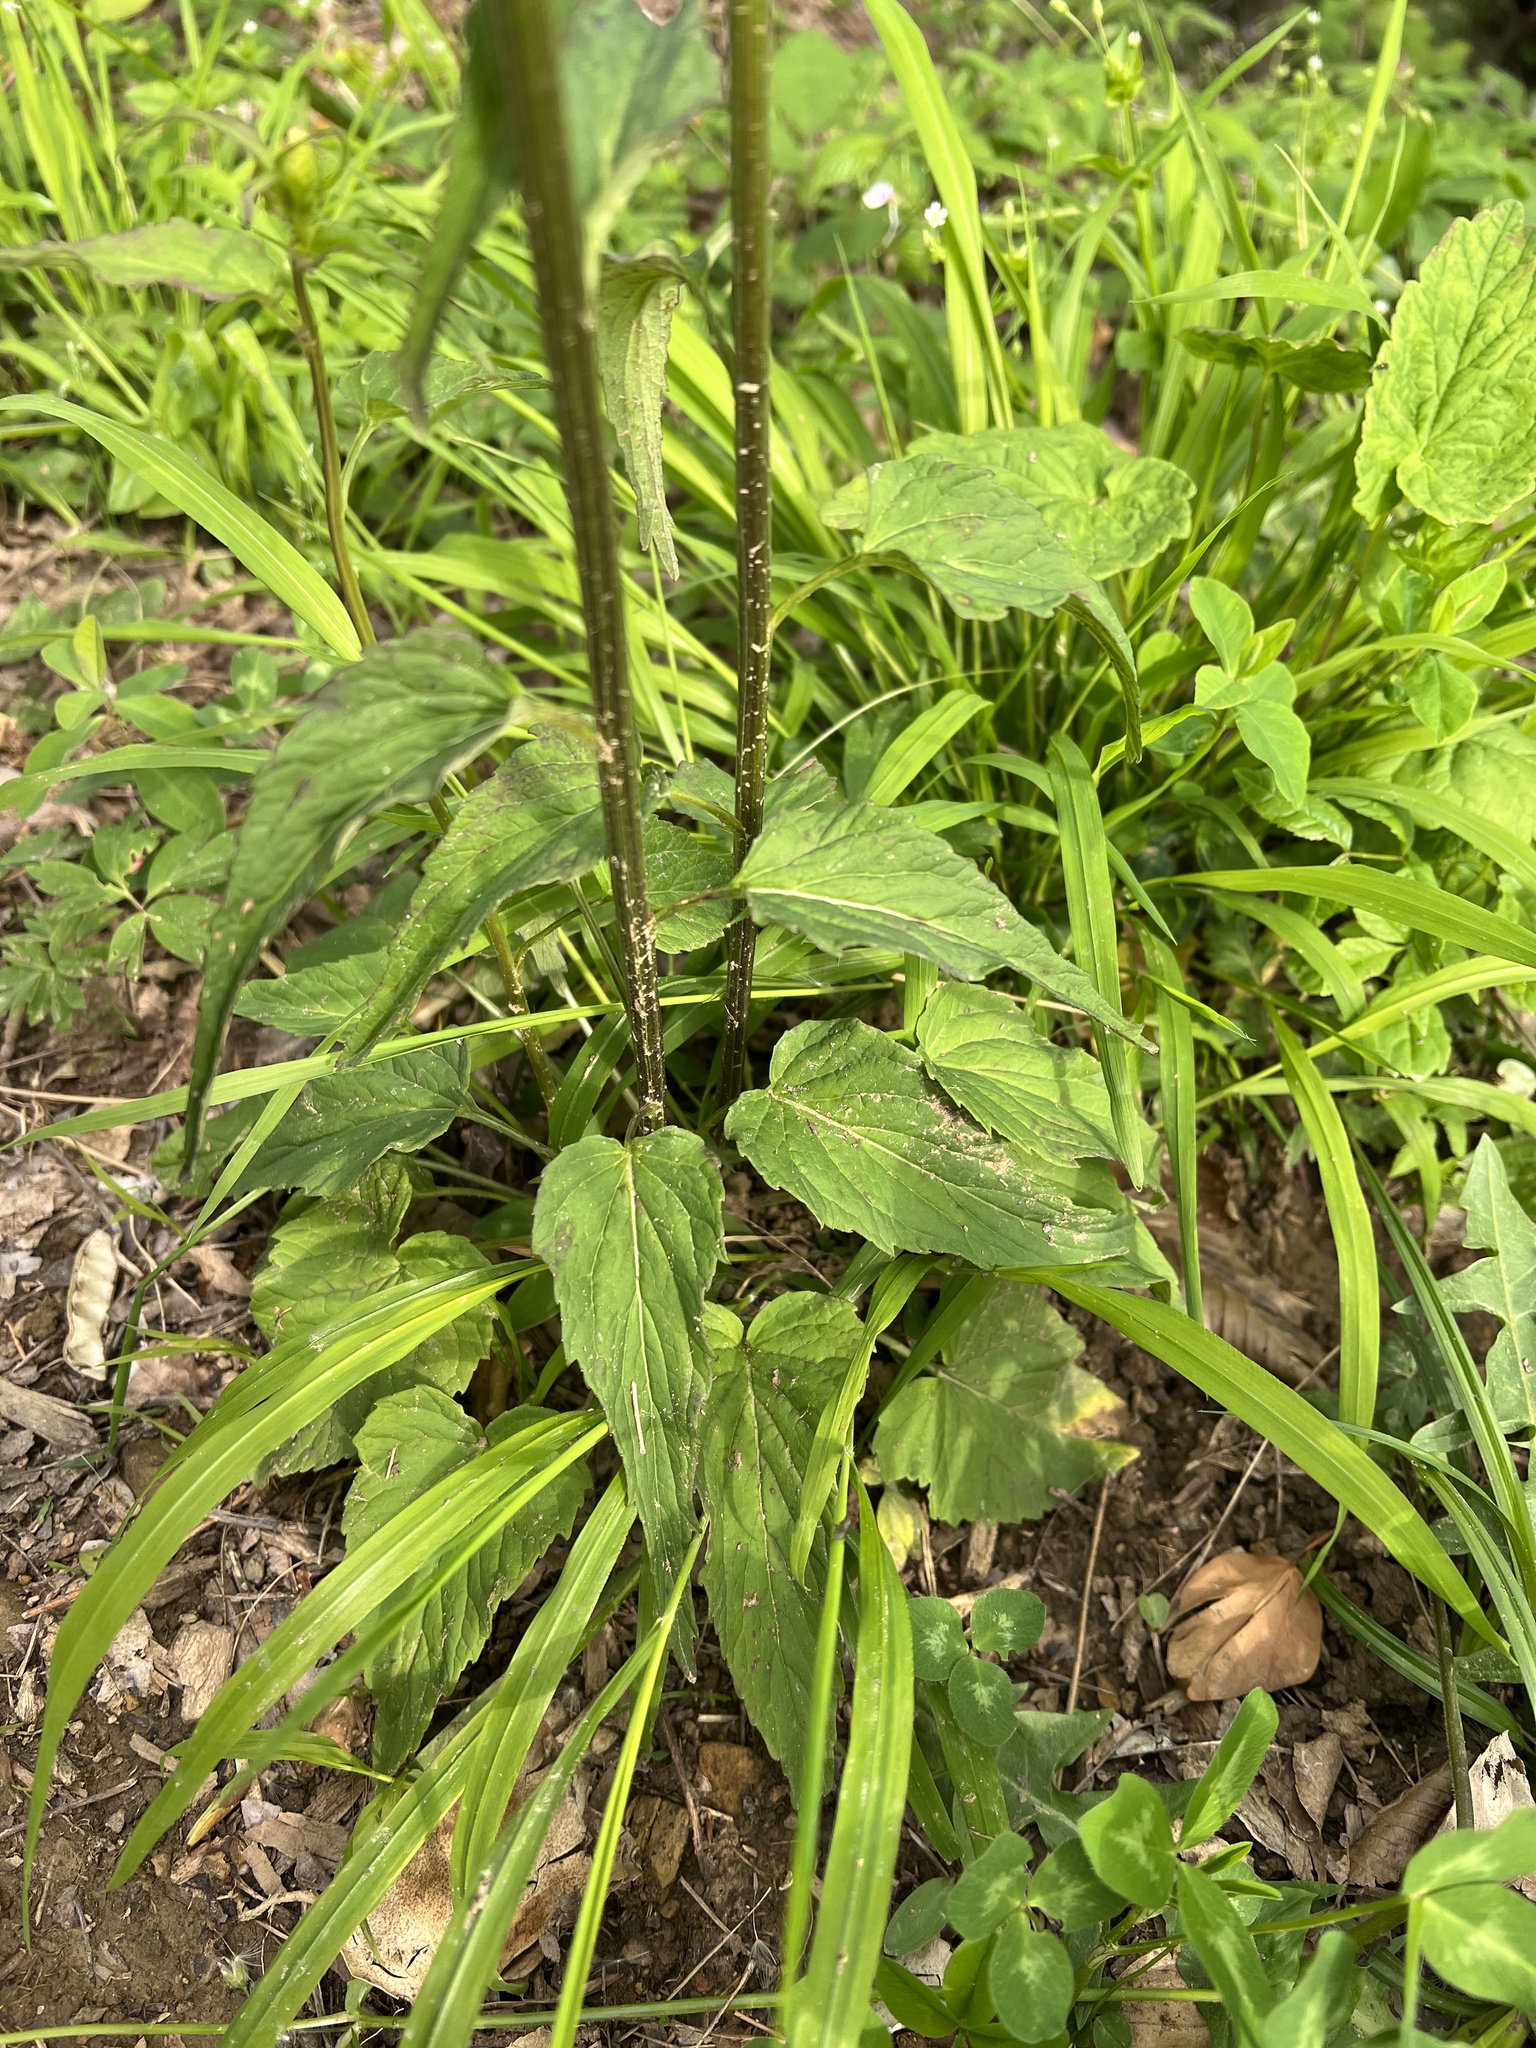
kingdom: Plantae
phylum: Tracheophyta
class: Magnoliopsida
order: Asterales
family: Campanulaceae
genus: Phyteuma
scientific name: Phyteuma ovatum
